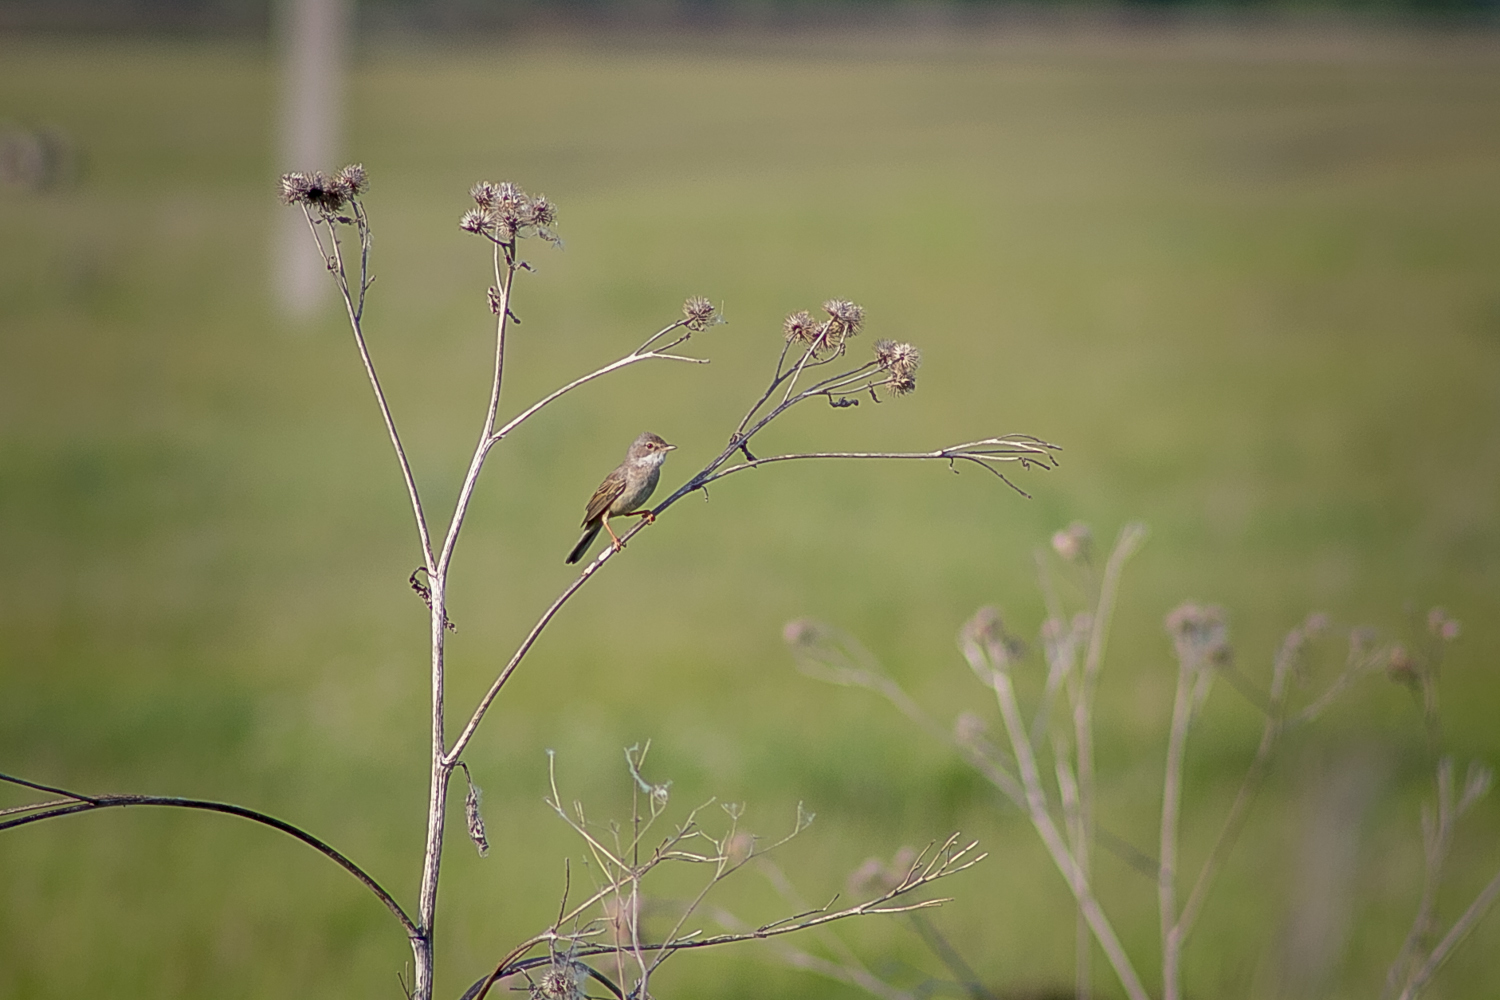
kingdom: Animalia
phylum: Chordata
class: Aves
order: Passeriformes
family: Sylviidae
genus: Sylvia
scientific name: Sylvia communis
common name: Common whitethroat
